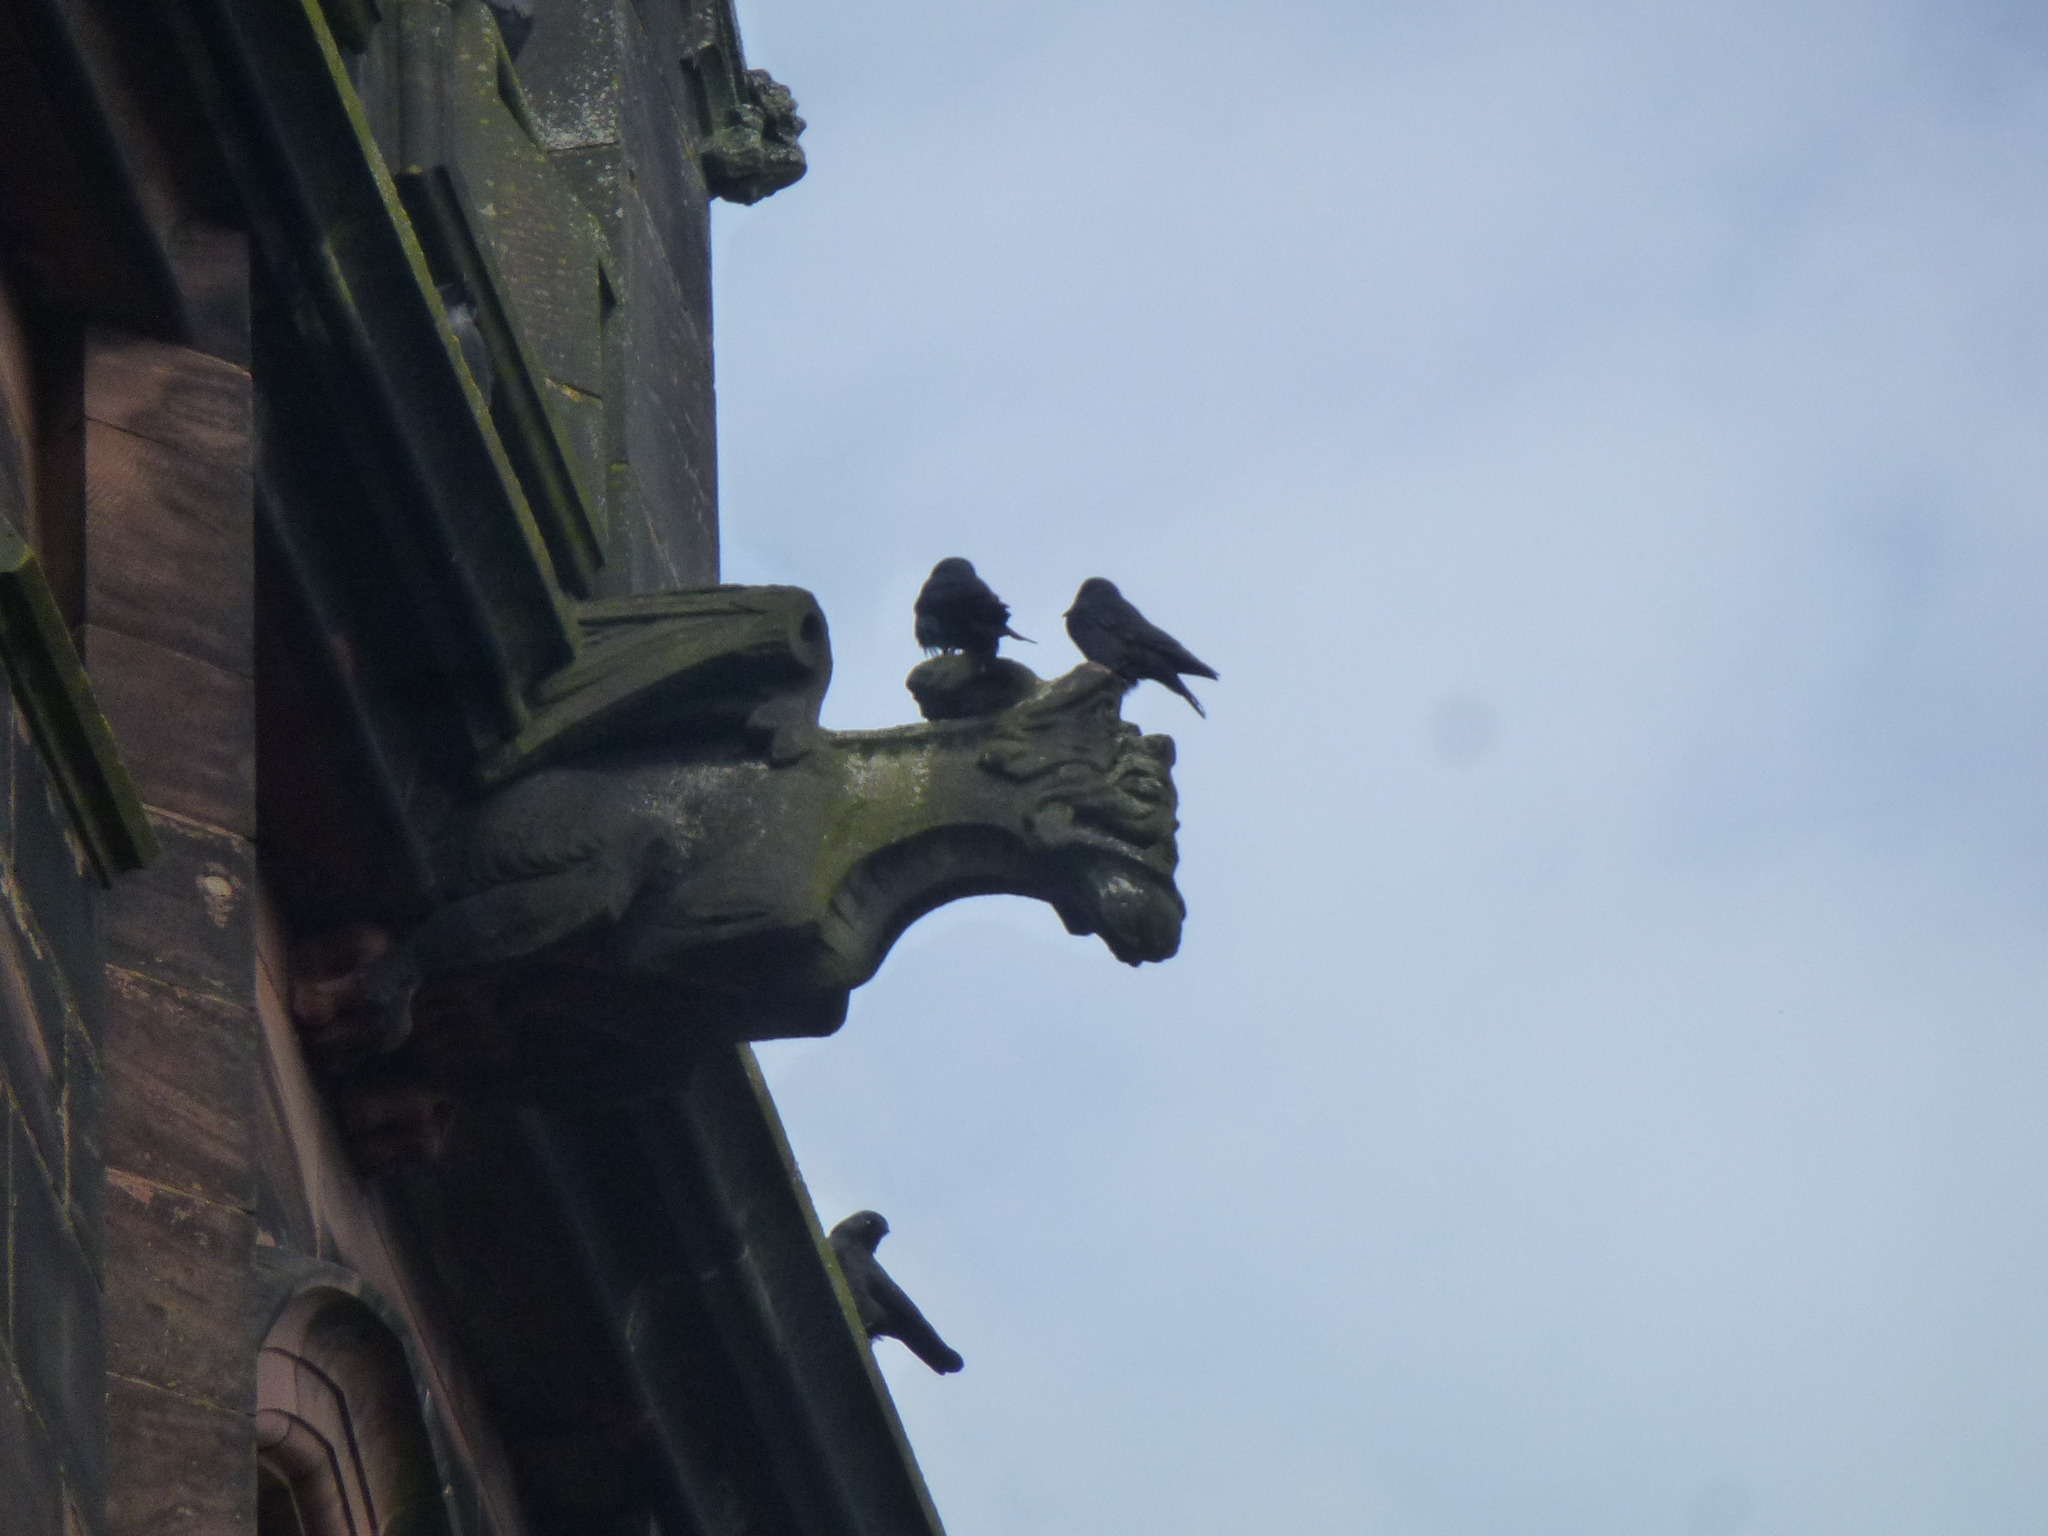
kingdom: Animalia
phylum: Chordata
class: Aves
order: Passeriformes
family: Corvidae
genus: Coloeus
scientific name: Coloeus monedula
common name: Western jackdaw
